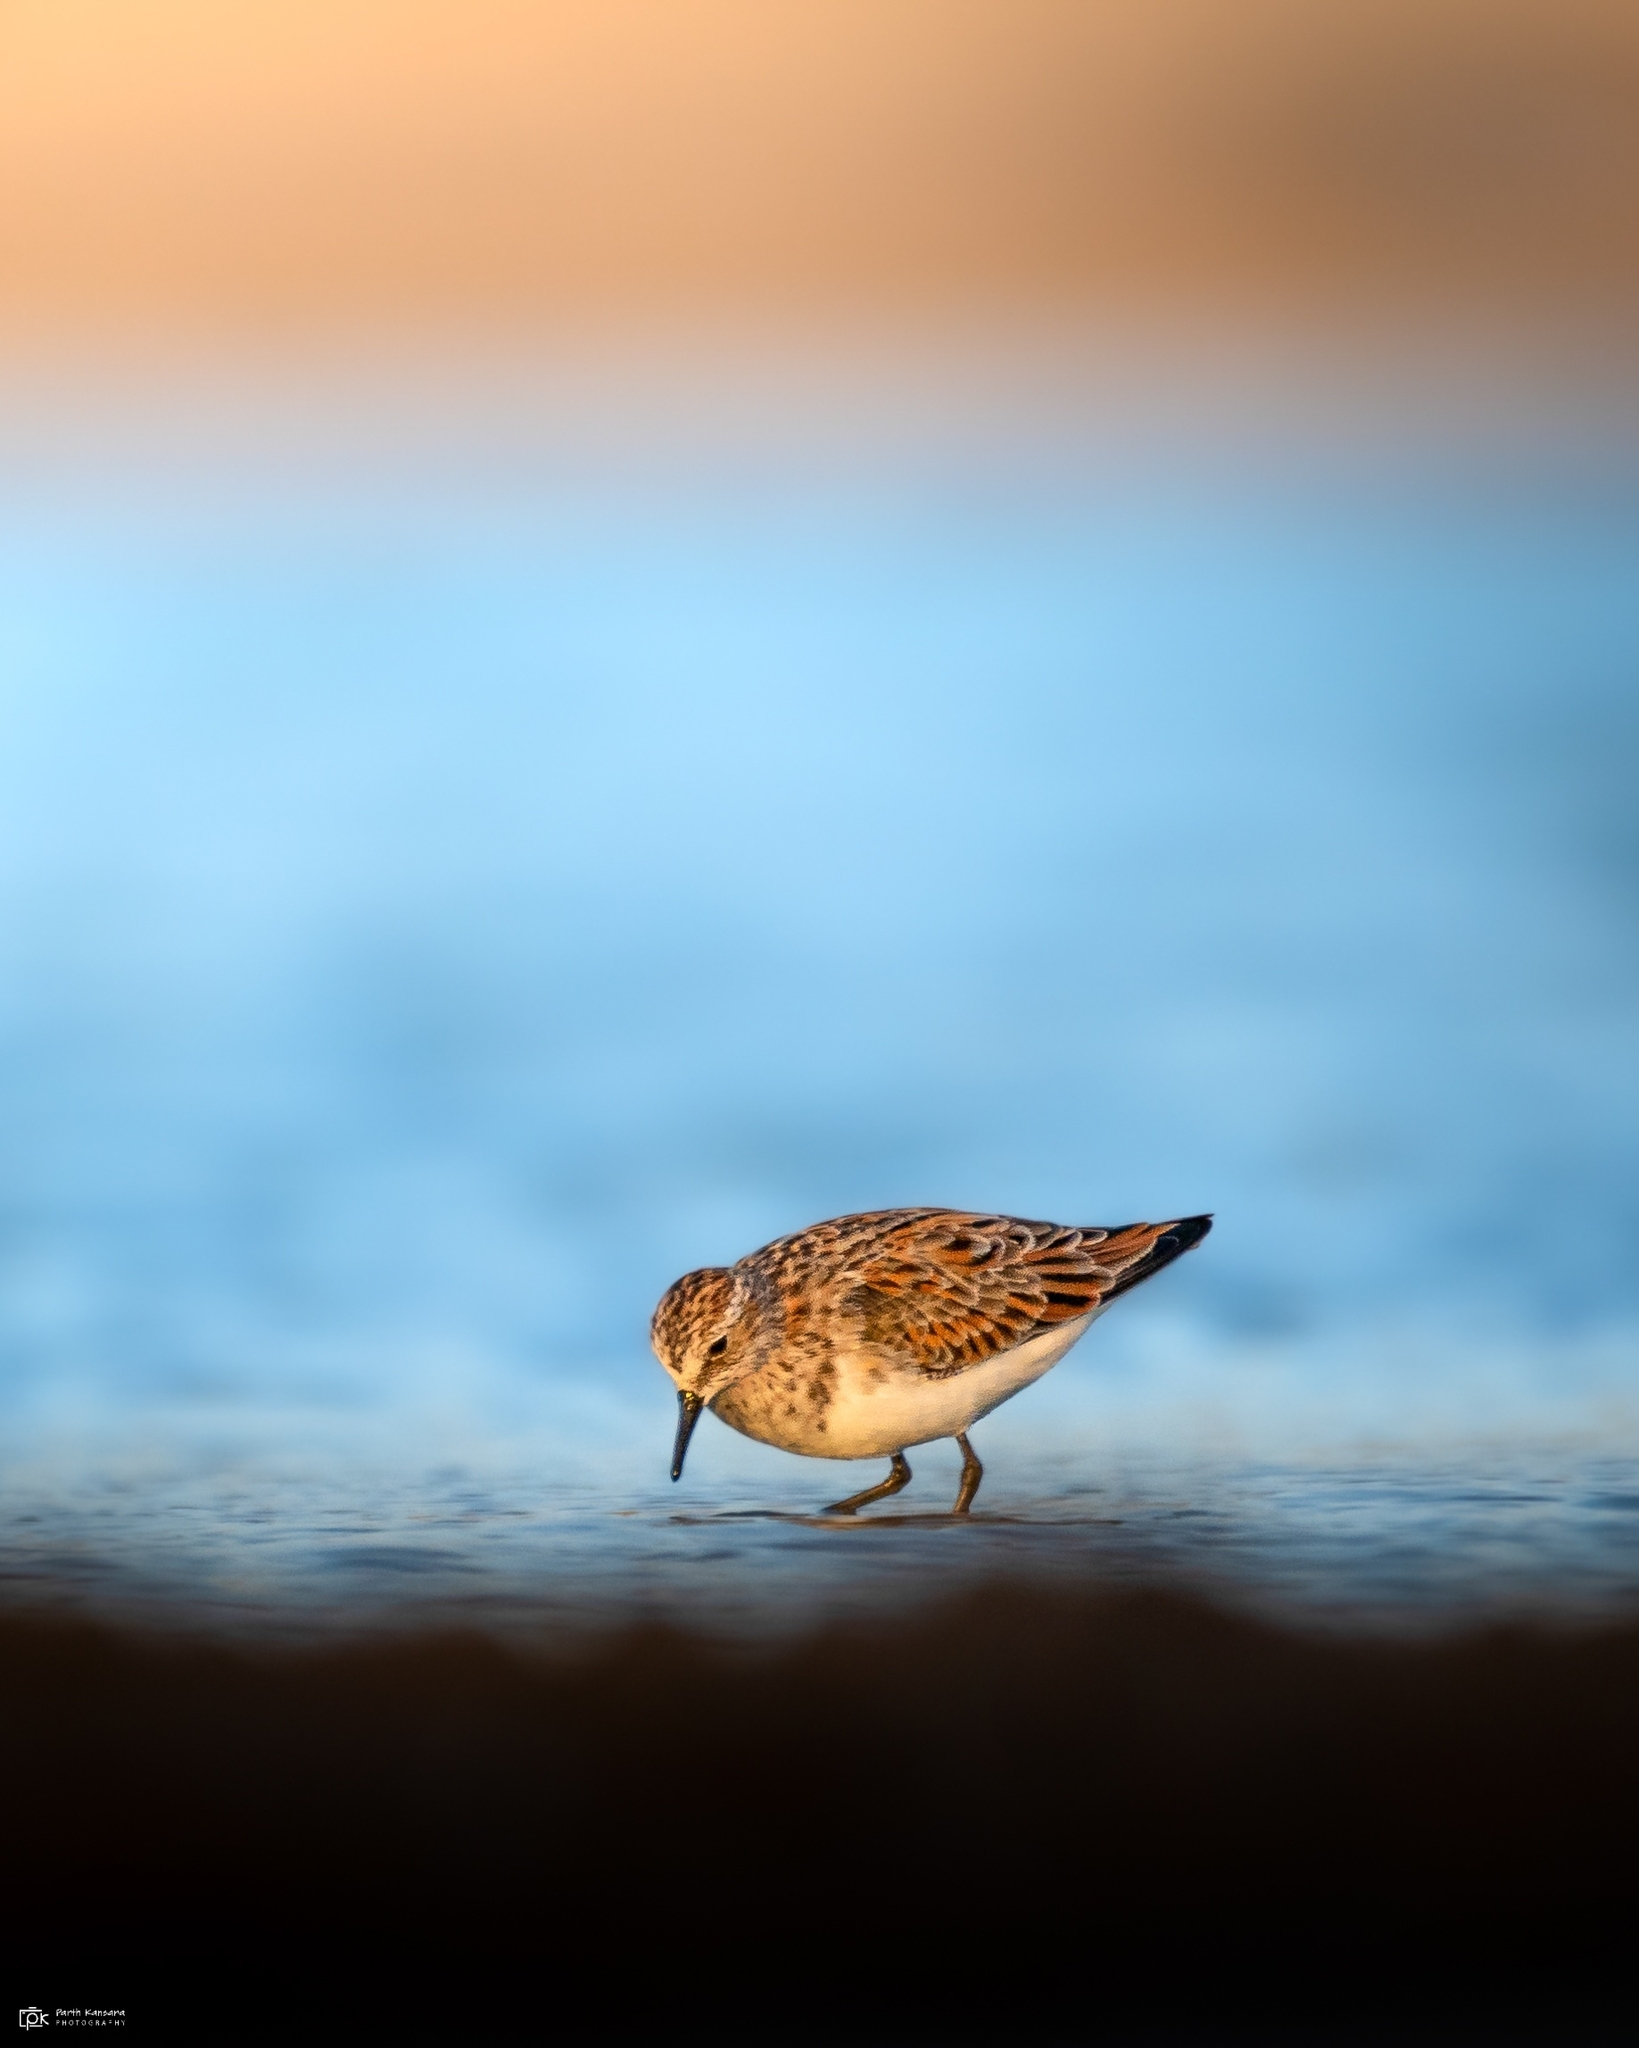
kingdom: Animalia
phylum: Chordata
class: Aves
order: Charadriiformes
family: Scolopacidae
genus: Calidris
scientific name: Calidris minuta
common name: Little stint
